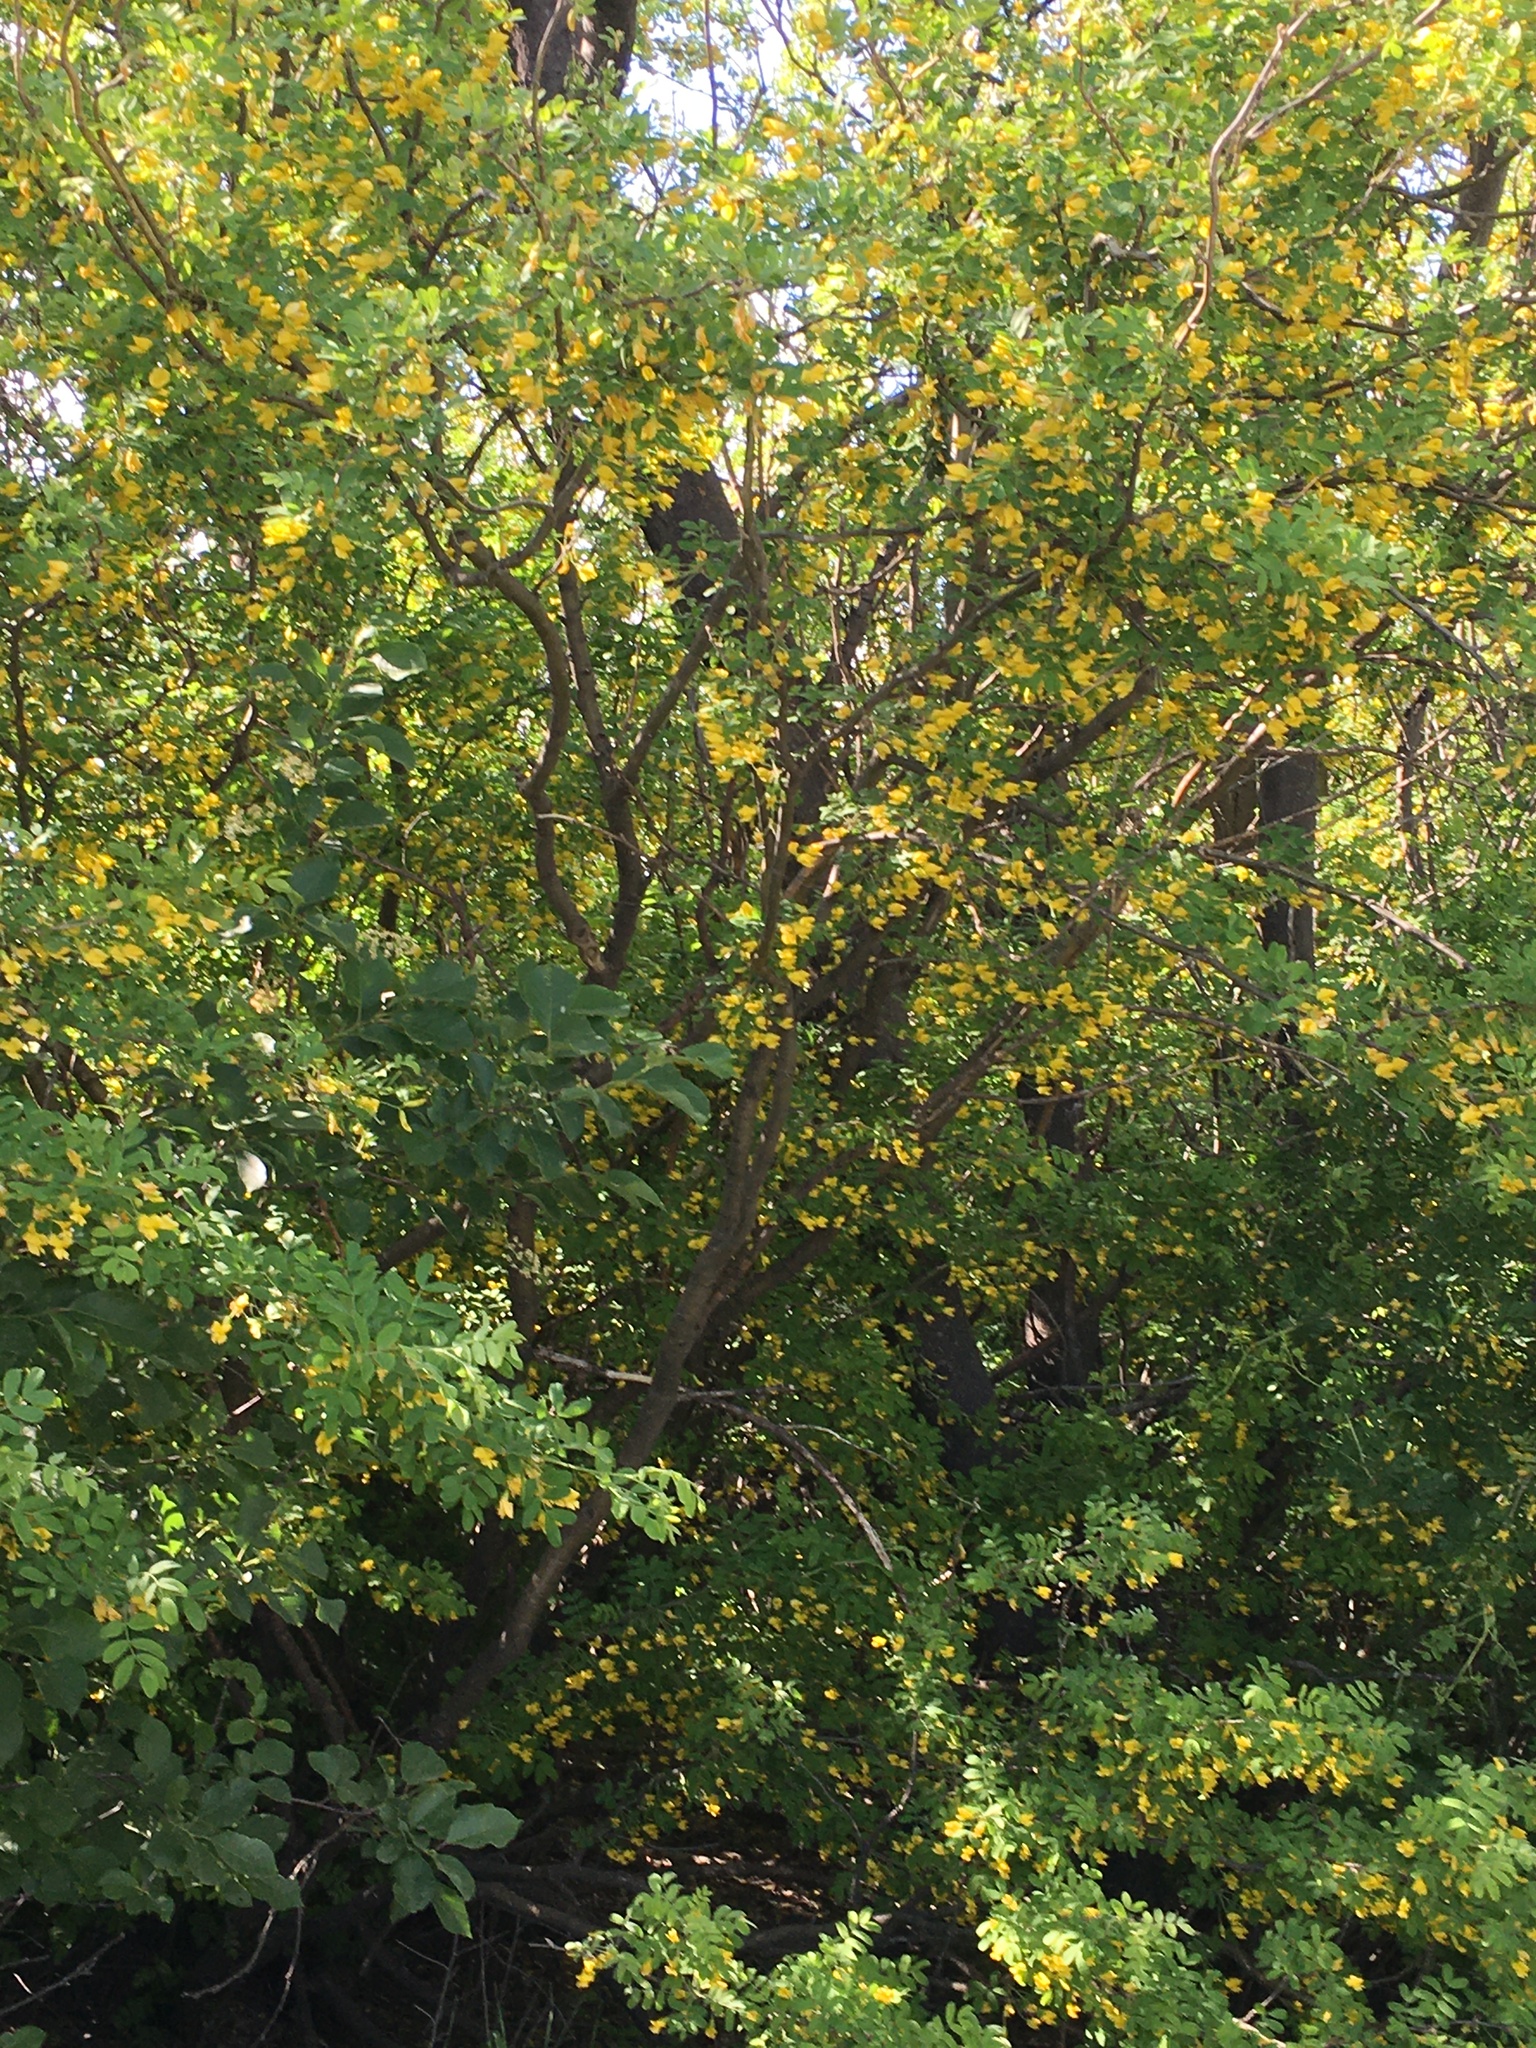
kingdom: Plantae
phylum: Tracheophyta
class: Magnoliopsida
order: Fabales
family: Fabaceae
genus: Caragana
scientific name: Caragana arborescens
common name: Siberian peashrub
